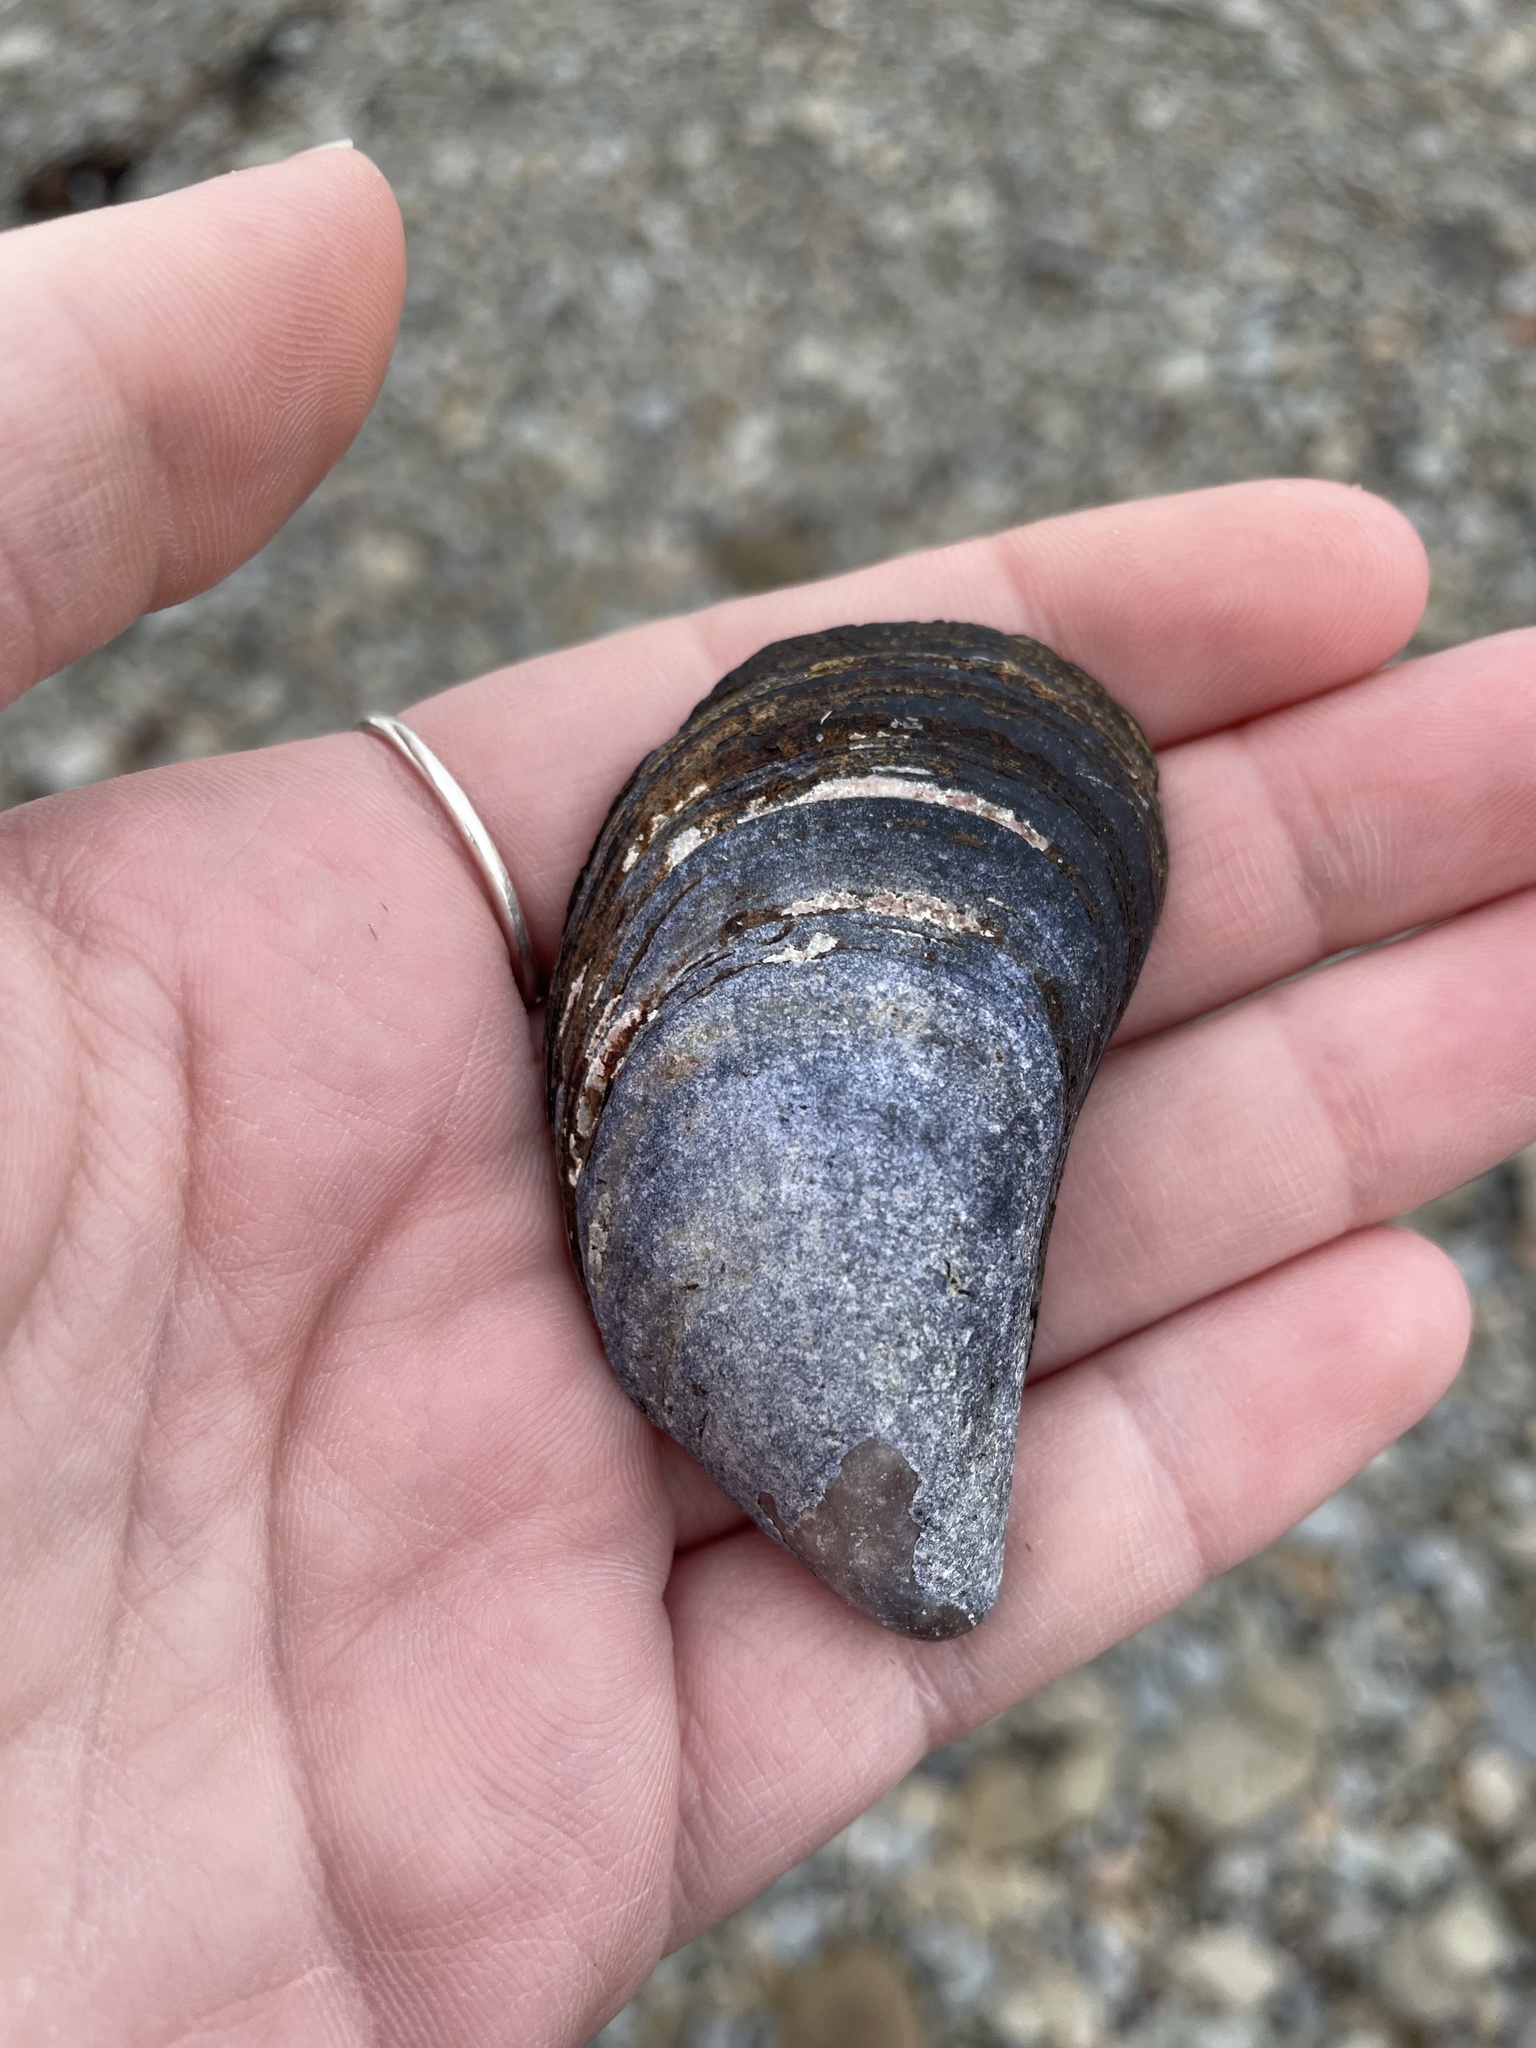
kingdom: Animalia
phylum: Mollusca
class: Bivalvia
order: Mytilida
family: Mytilidae
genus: Mytilus
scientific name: Mytilus edulis
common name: Blue mussel
